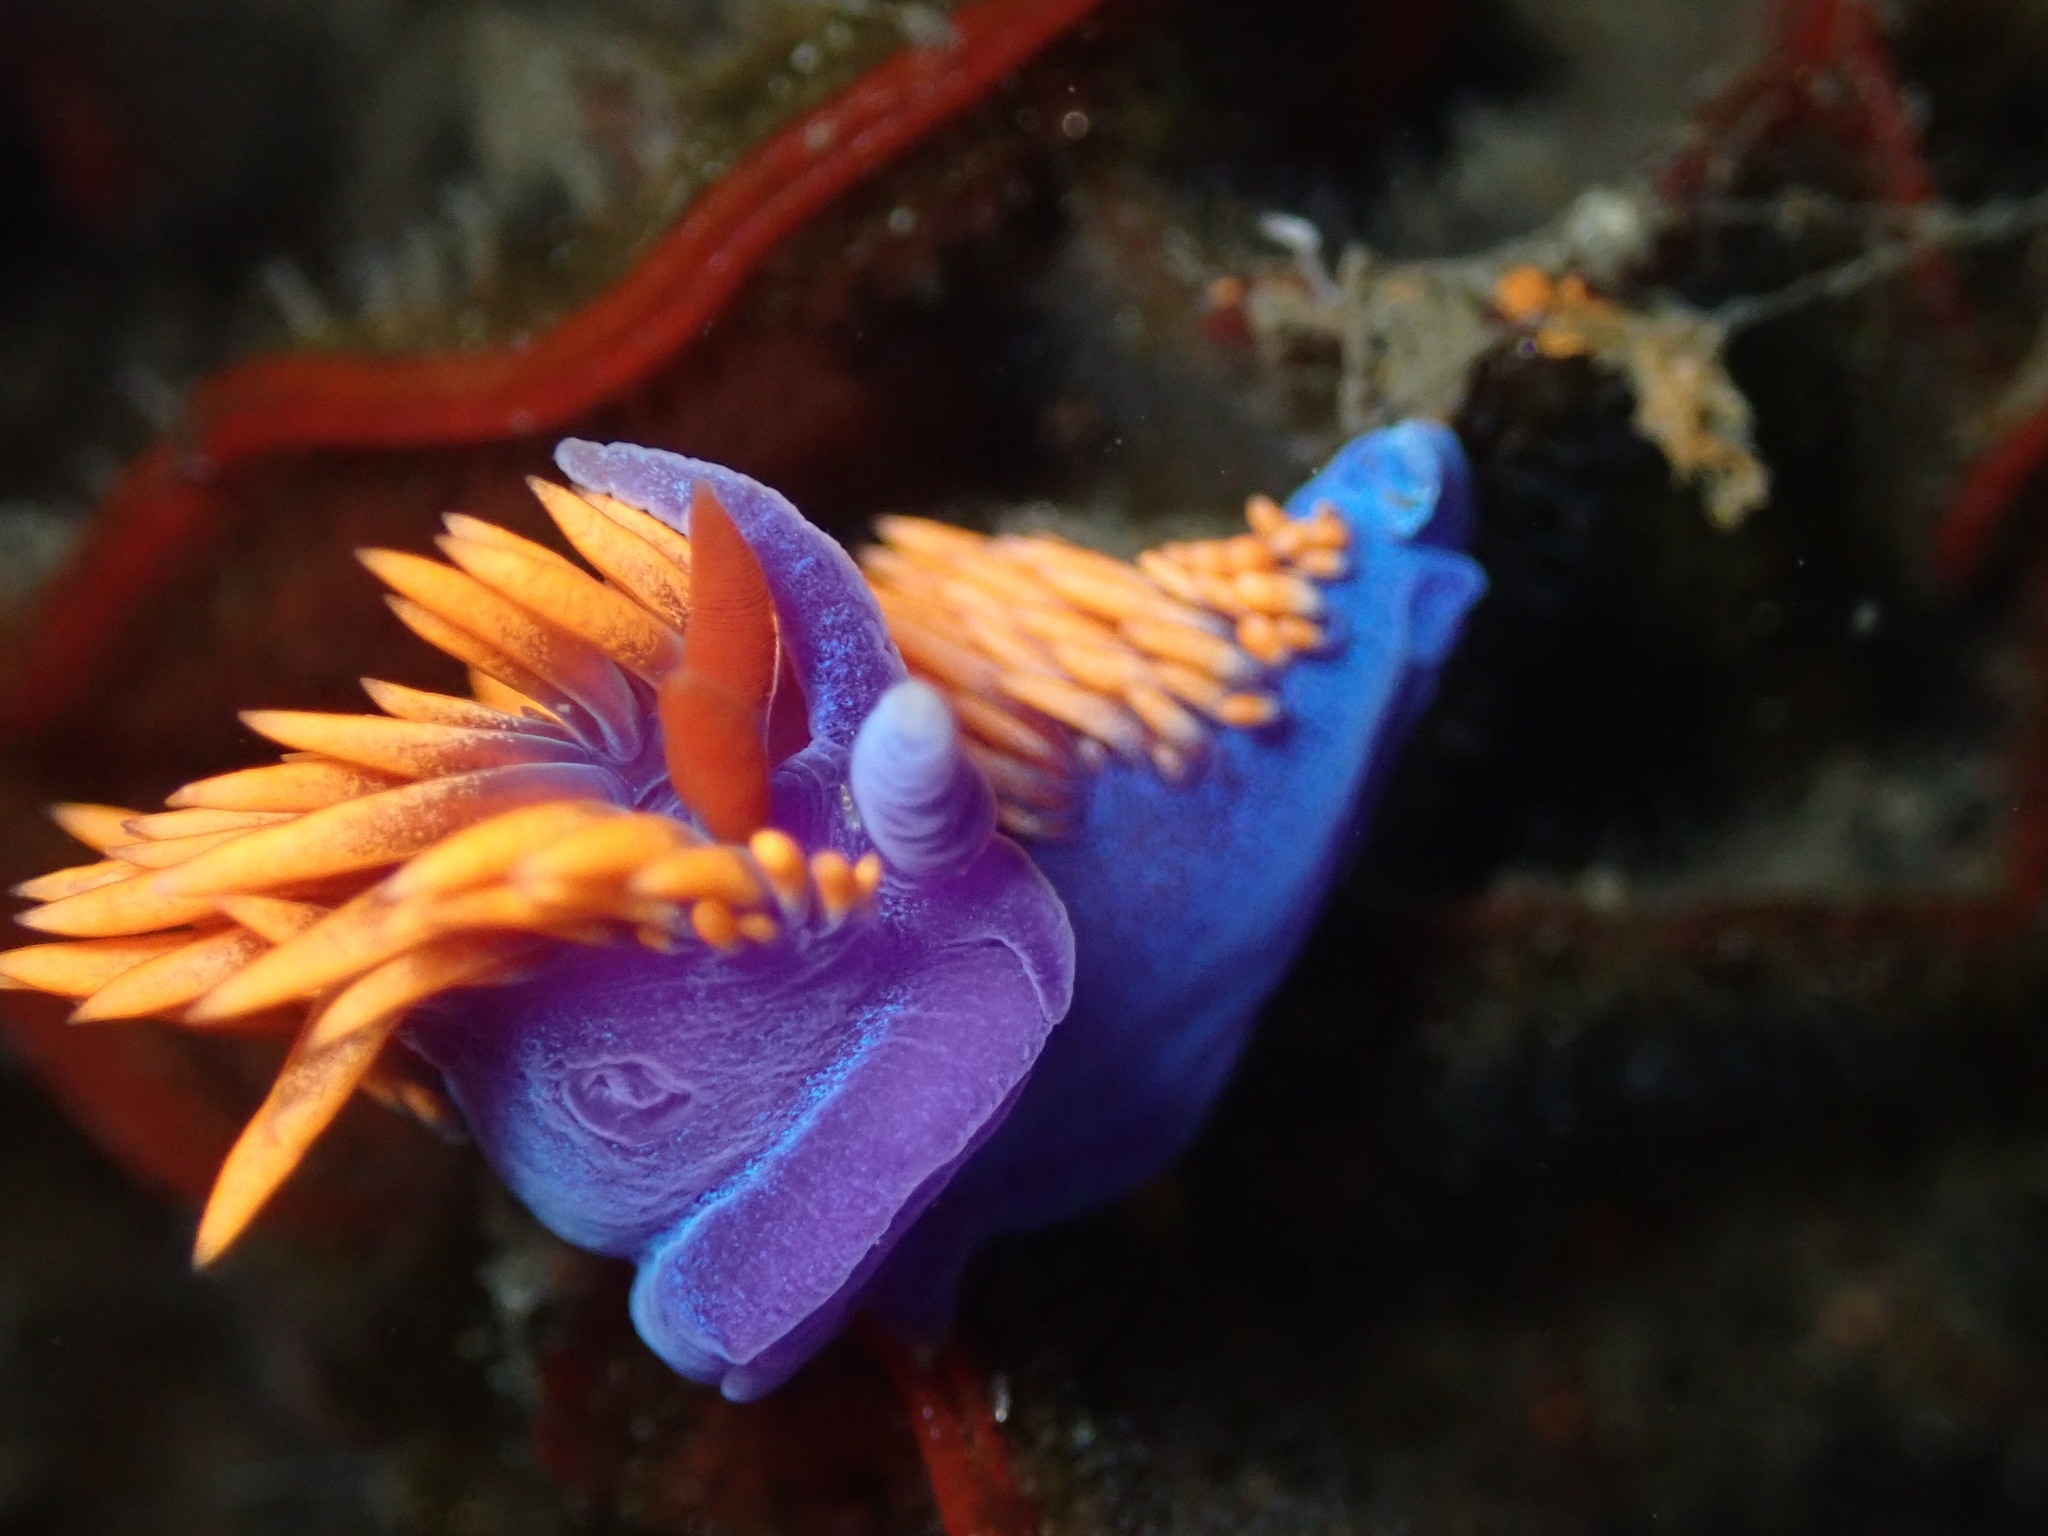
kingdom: Animalia
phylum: Mollusca
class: Gastropoda
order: Nudibranchia
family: Flabellinopsidae
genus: Flabellinopsis
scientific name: Flabellinopsis iodinea
